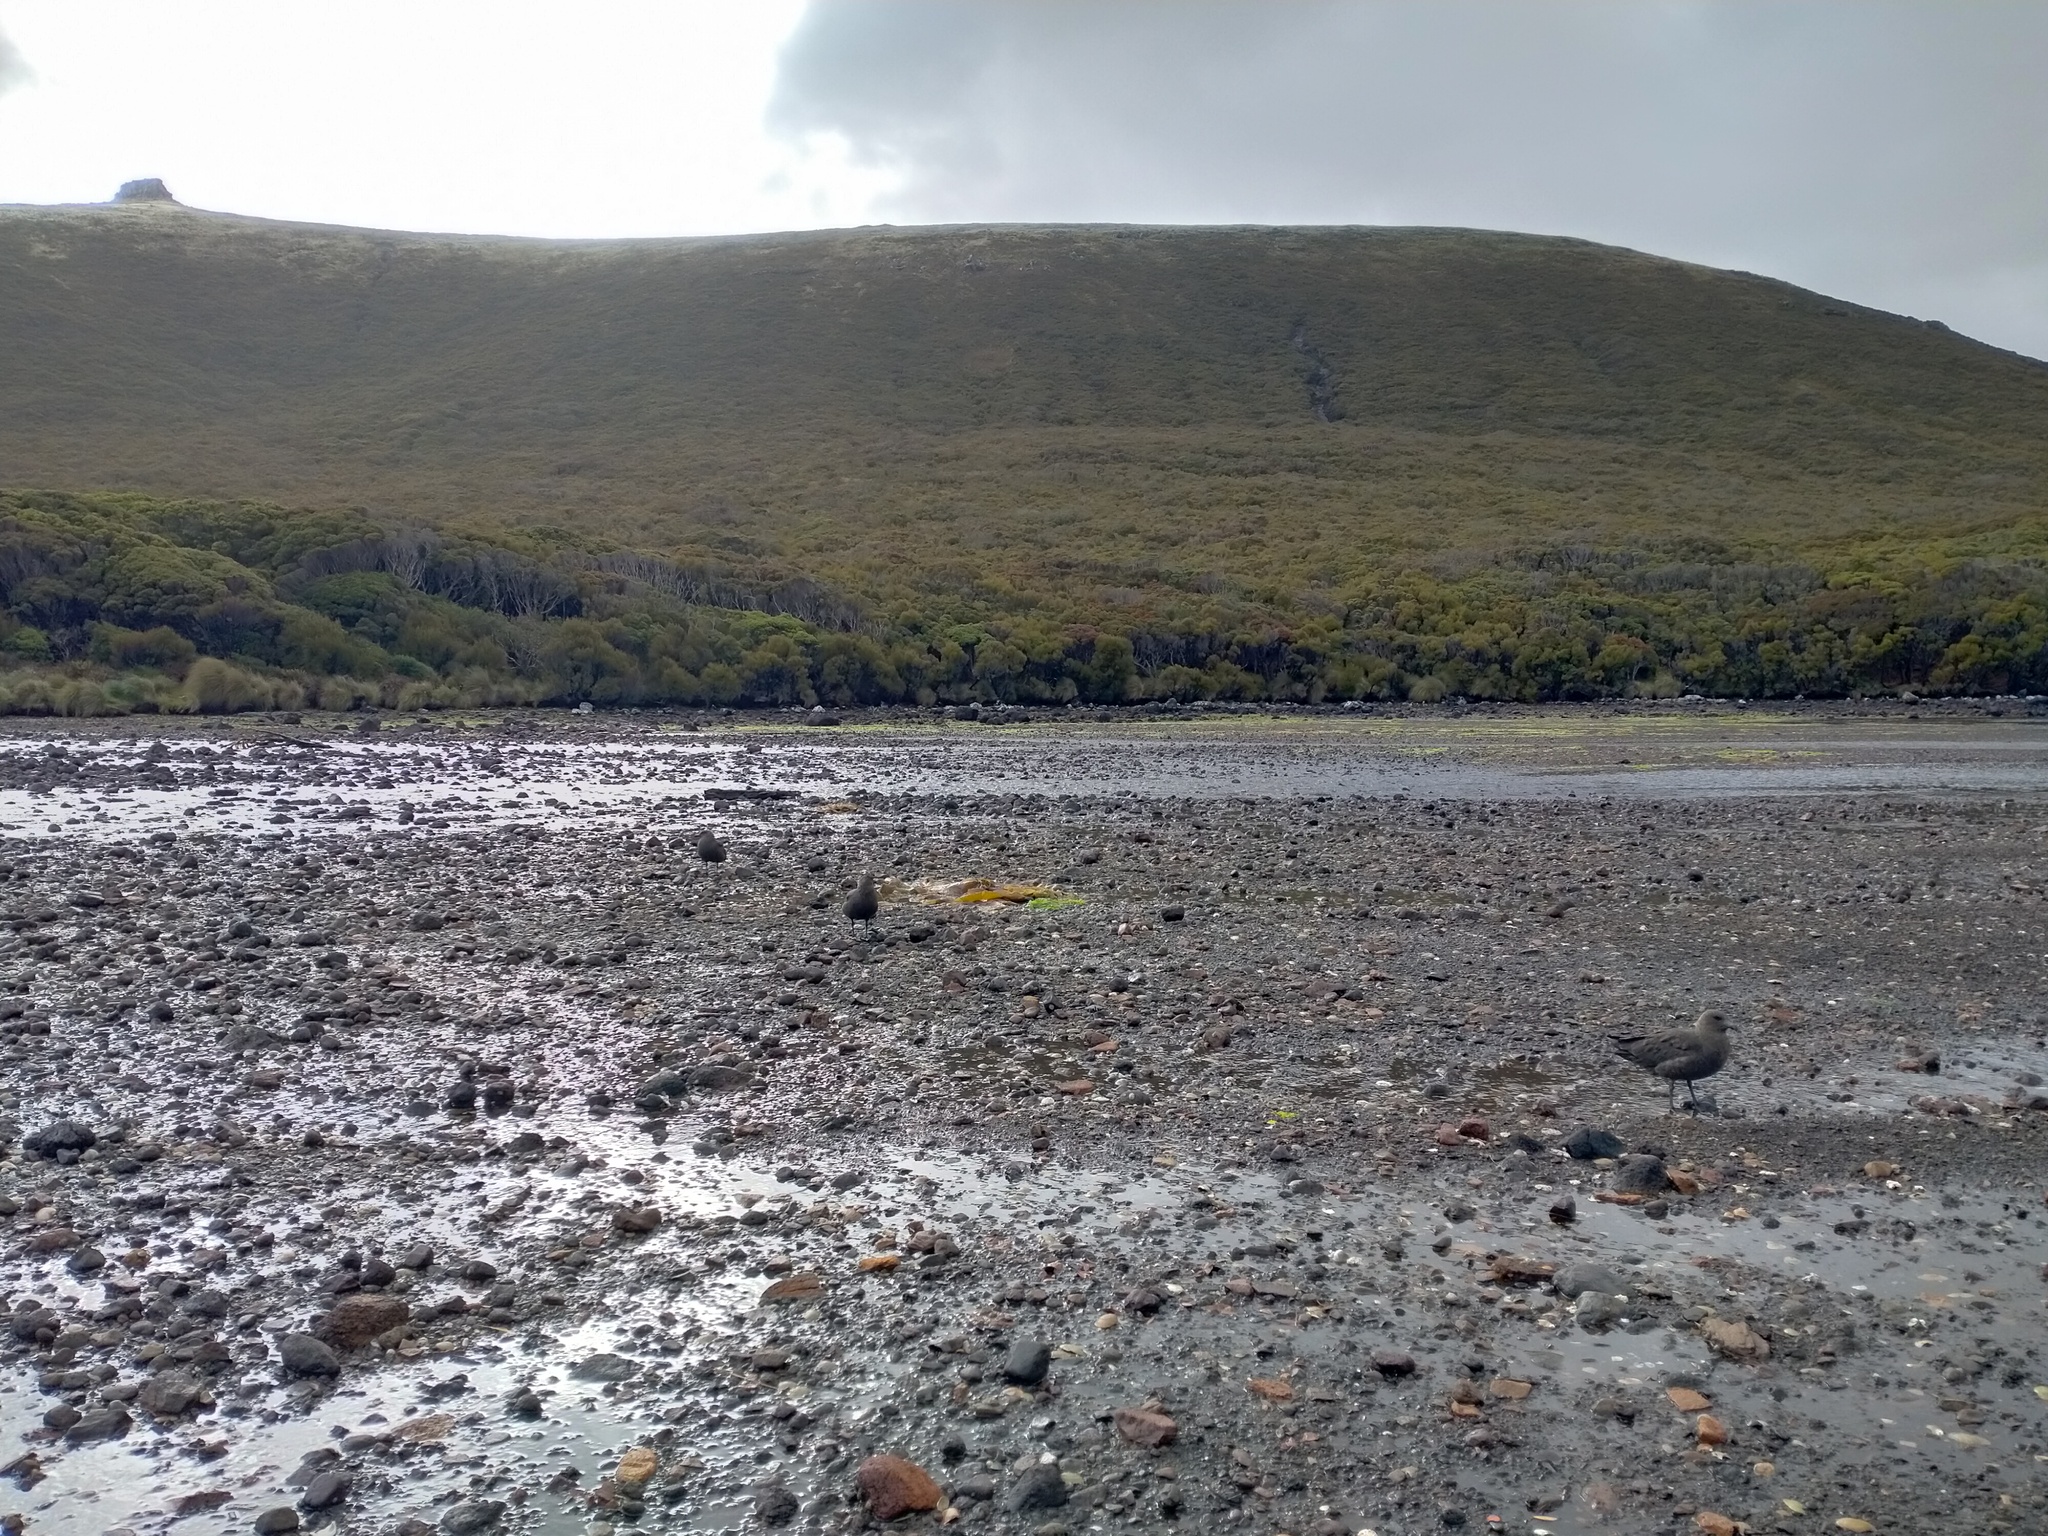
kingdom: Animalia
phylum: Chordata
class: Aves
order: Charadriiformes
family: Stercorariidae
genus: Stercorarius
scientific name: Stercorarius antarcticus
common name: Brown skua
